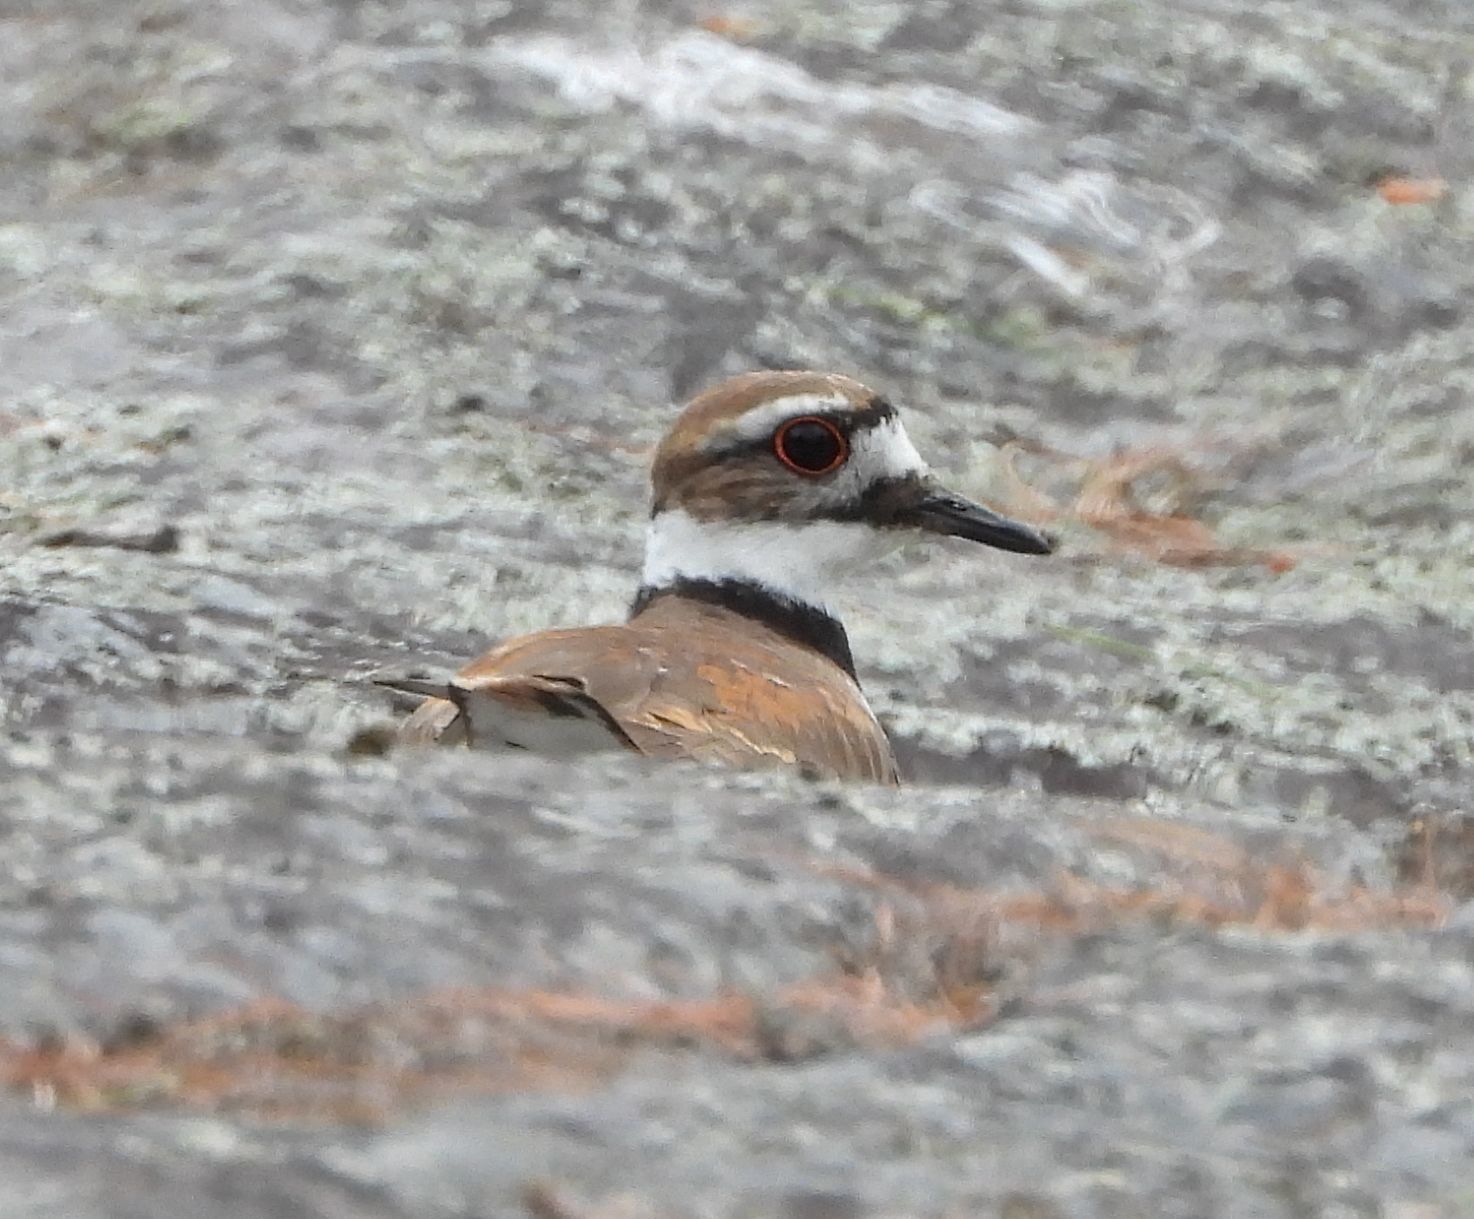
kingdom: Animalia
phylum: Chordata
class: Aves
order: Charadriiformes
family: Charadriidae
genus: Charadrius
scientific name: Charadrius vociferus
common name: Killdeer
